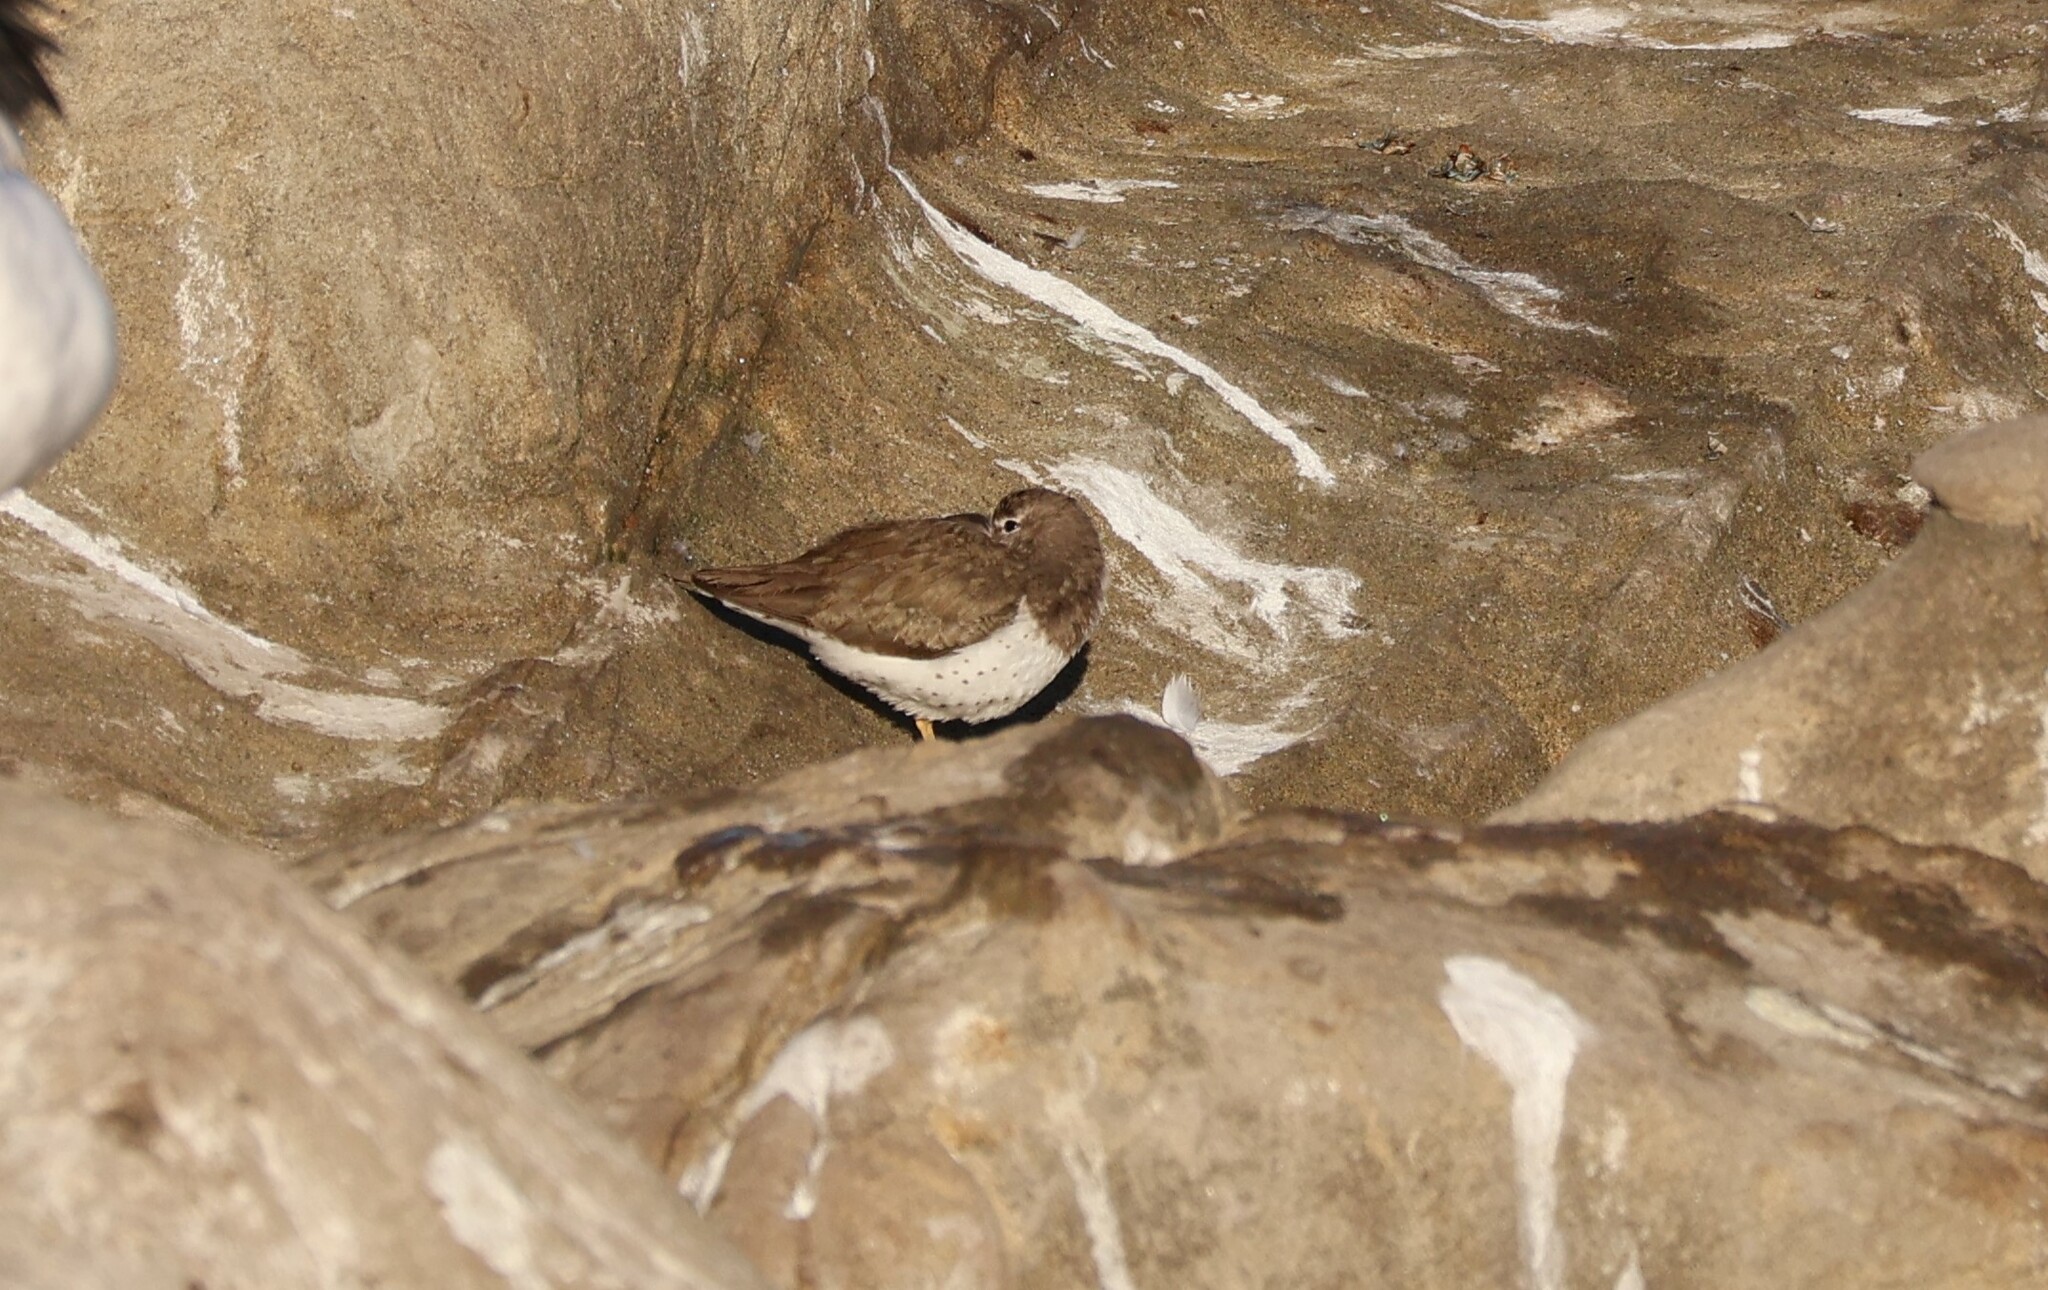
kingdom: Animalia
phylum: Chordata
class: Aves
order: Charadriiformes
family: Scolopacidae
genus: Actitis
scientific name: Actitis macularius
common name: Spotted sandpiper
